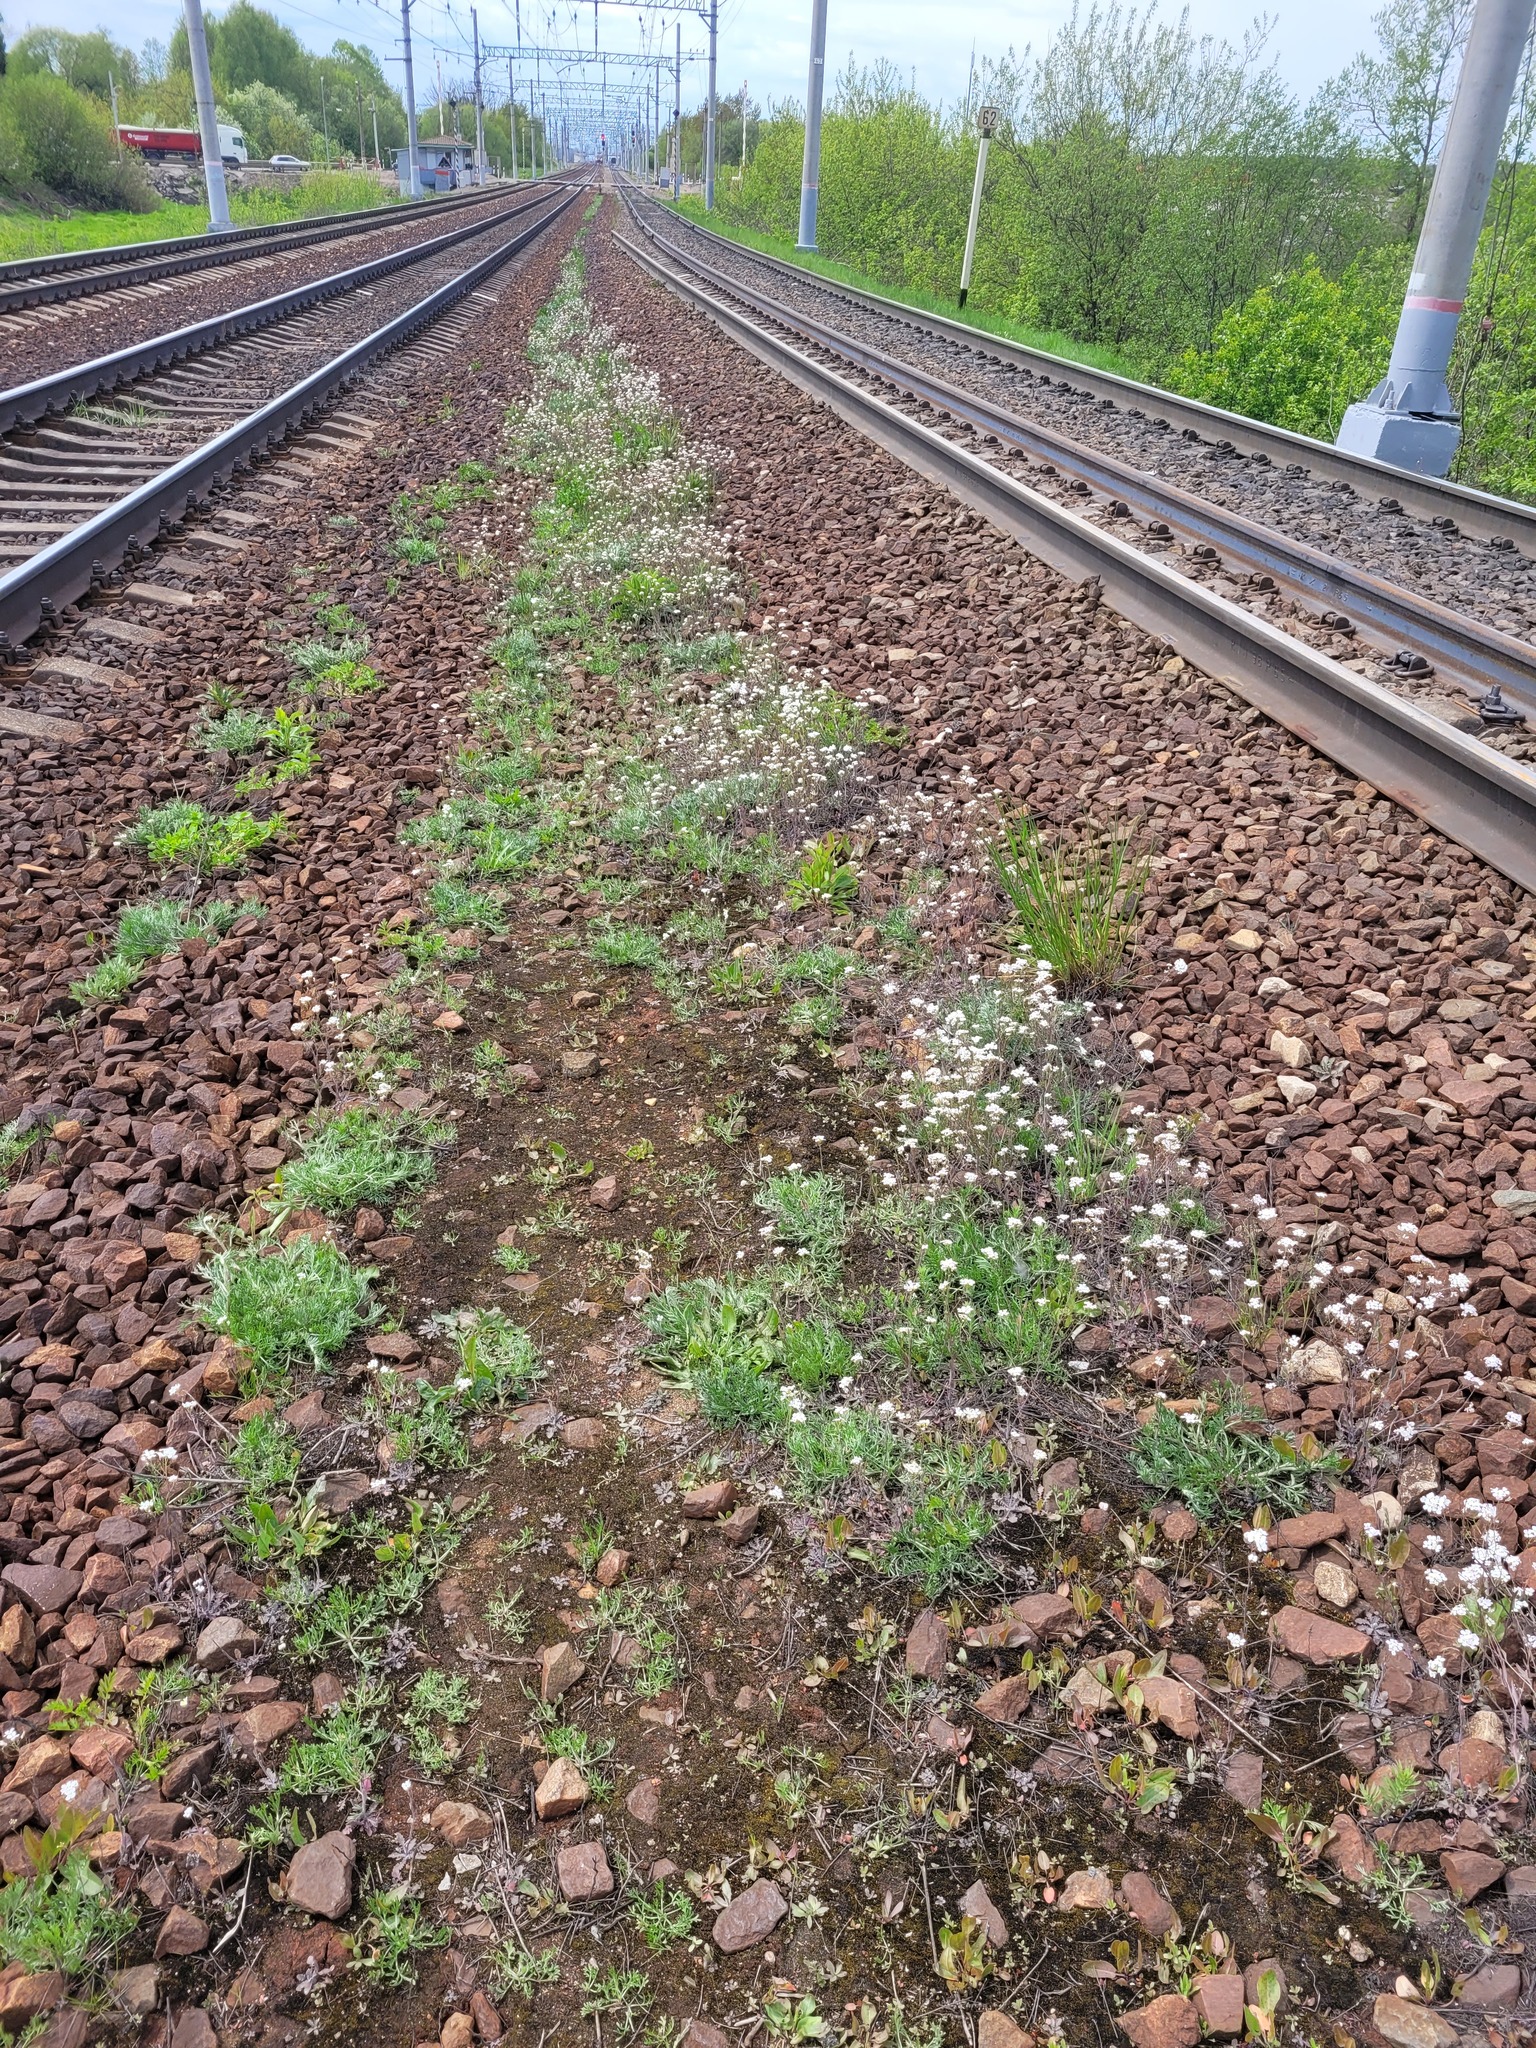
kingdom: Plantae
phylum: Tracheophyta
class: Magnoliopsida
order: Brassicales
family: Brassicaceae
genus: Arabidopsis
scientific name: Arabidopsis arenosa
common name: Sand rock-cress
